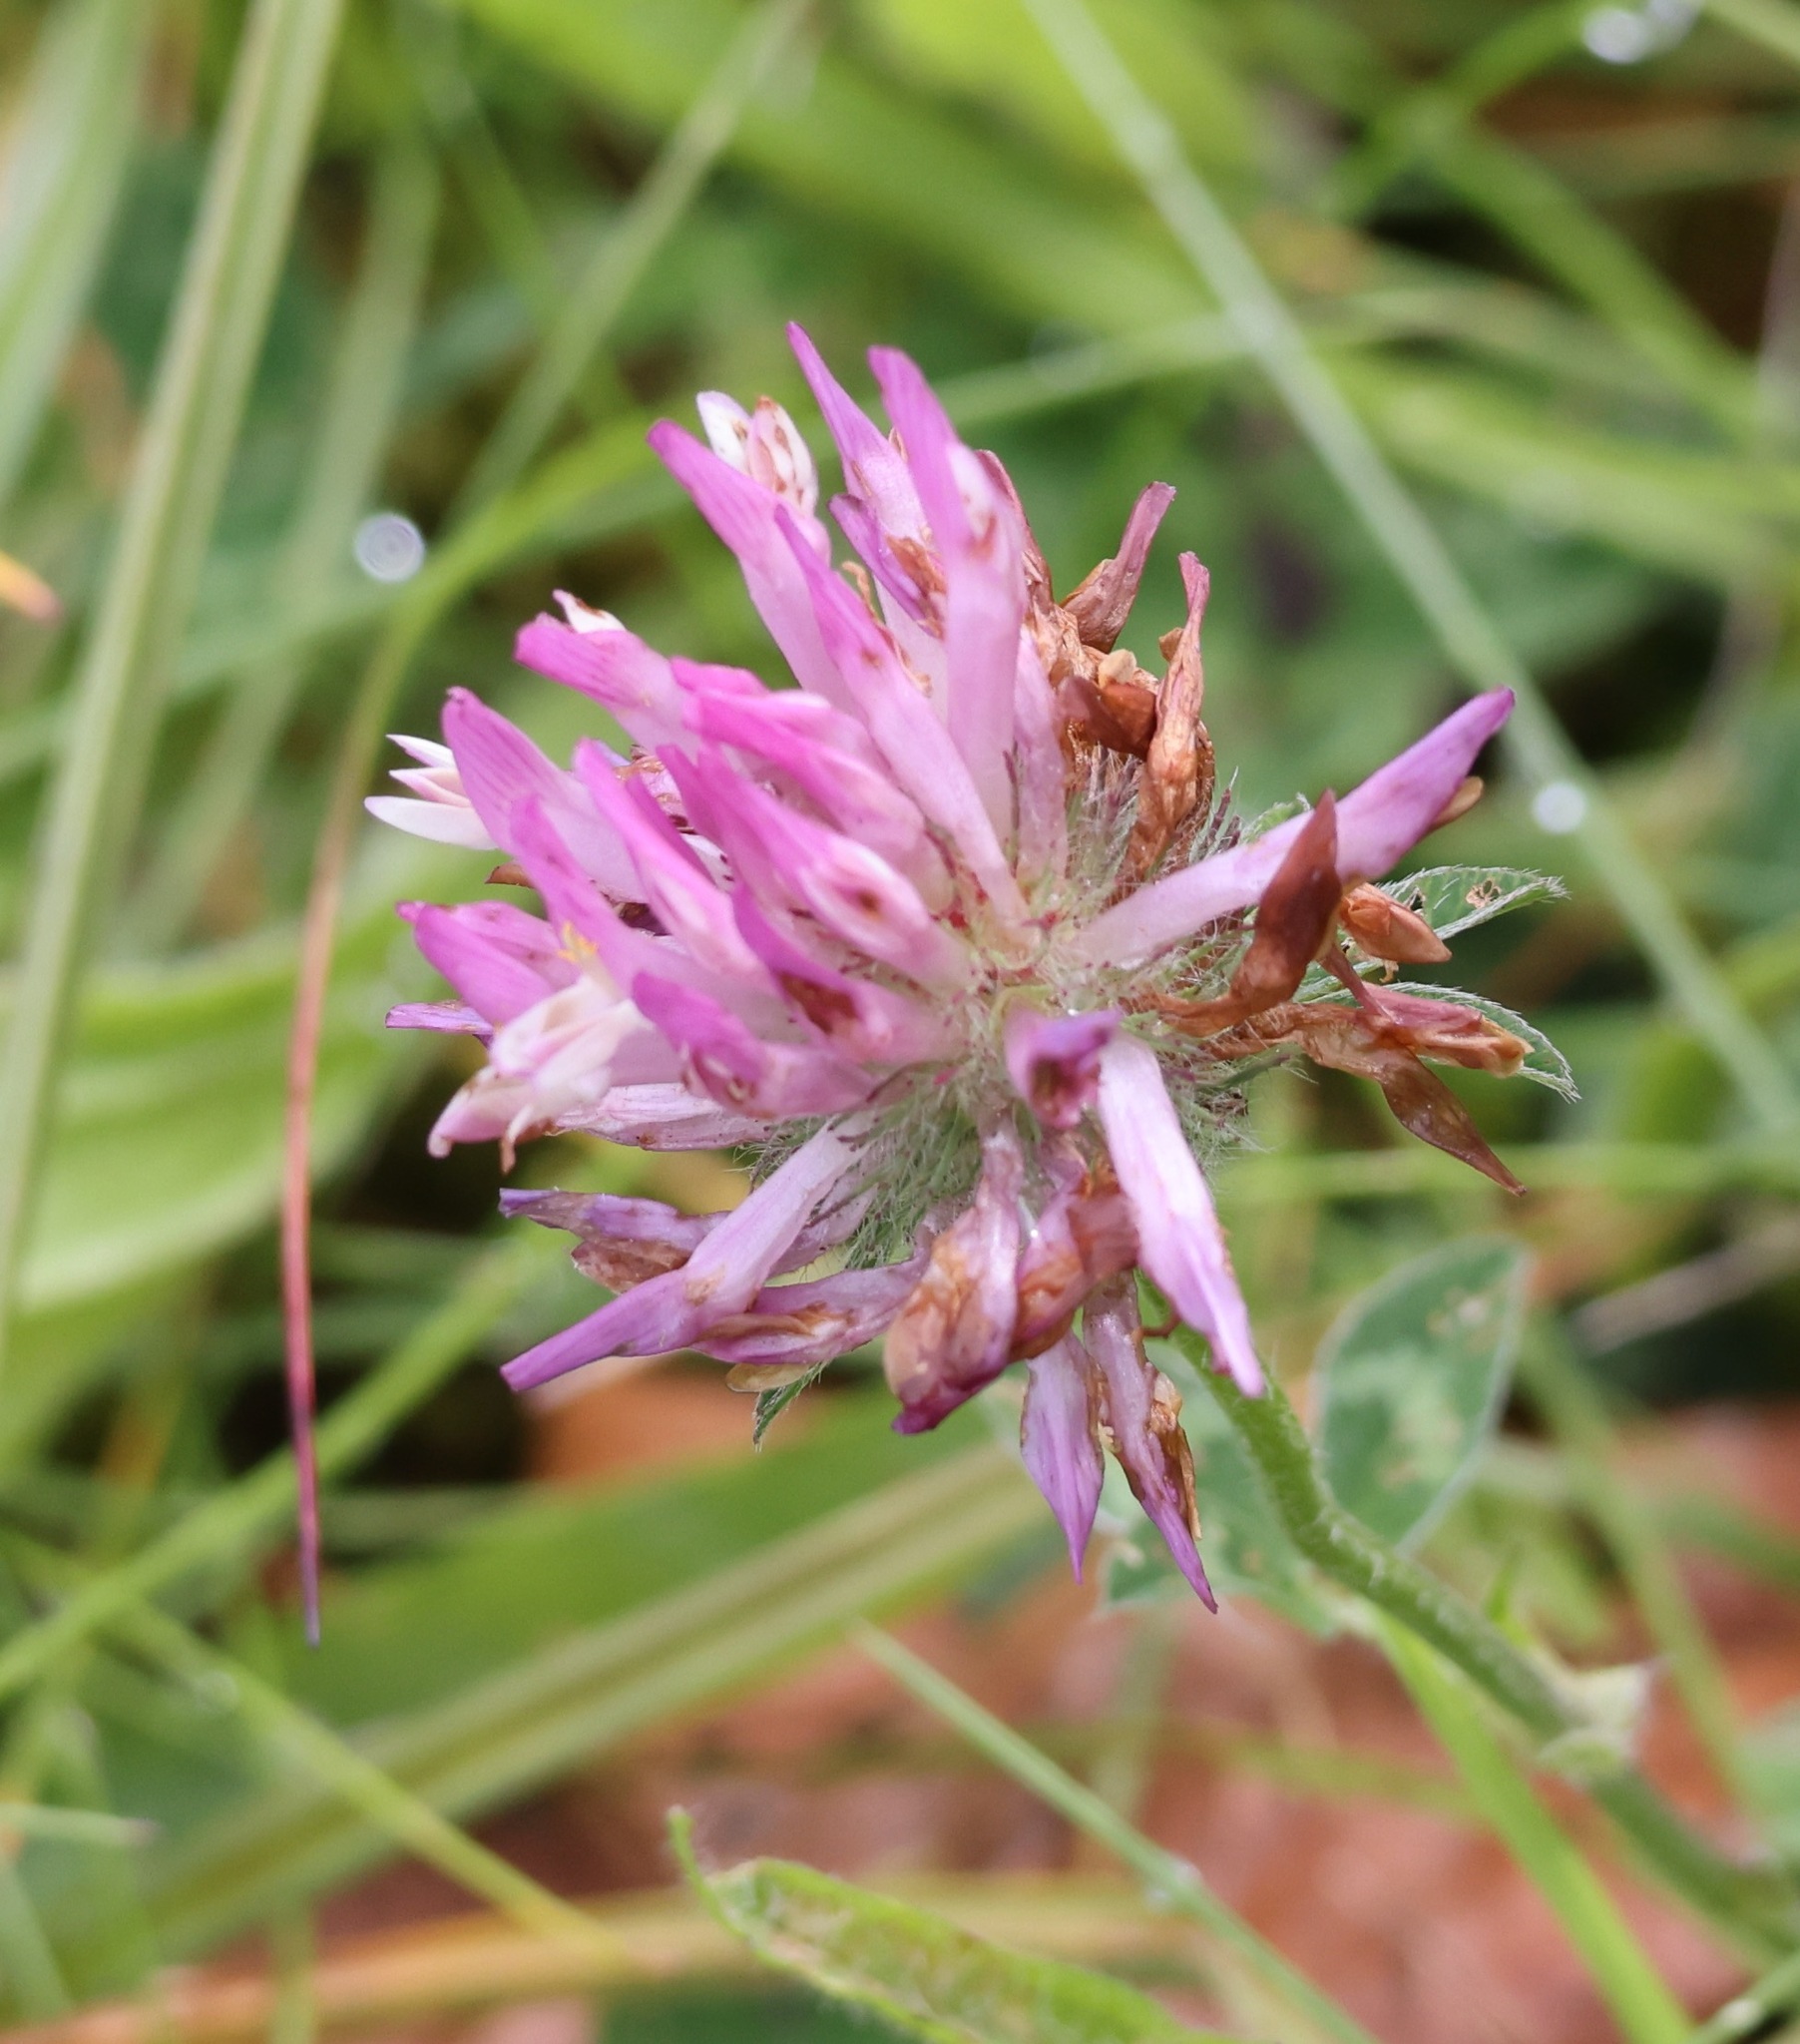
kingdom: Plantae
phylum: Tracheophyta
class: Magnoliopsida
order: Fabales
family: Fabaceae
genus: Trifolium
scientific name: Trifolium pratense
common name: Red clover
